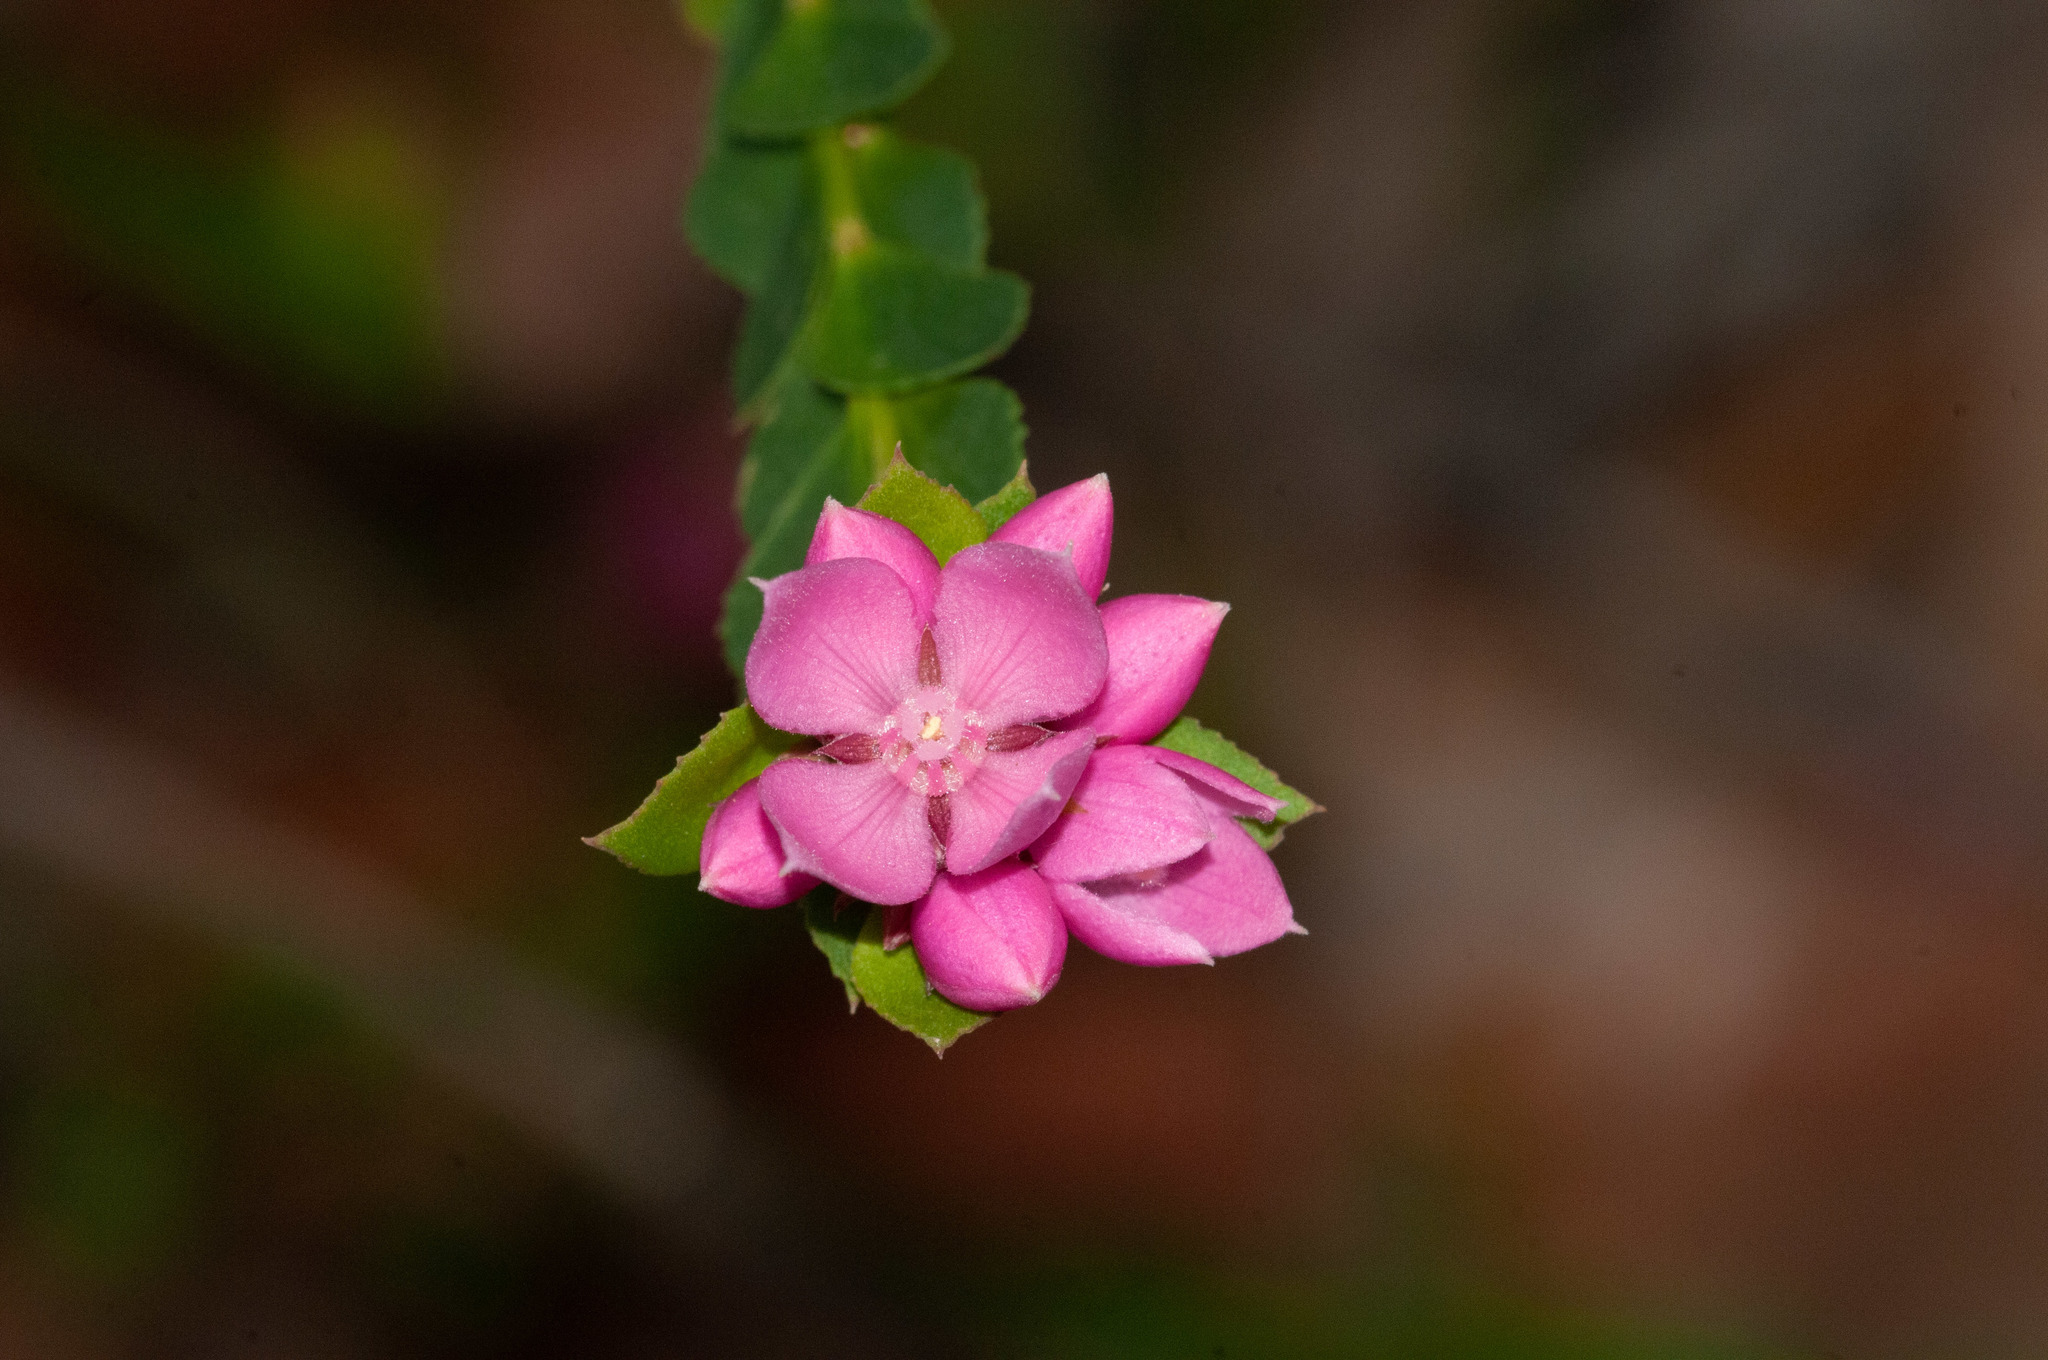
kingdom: Plantae
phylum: Tracheophyta
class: Magnoliopsida
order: Sapindales
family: Rutaceae
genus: Boronia
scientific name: Boronia serrulata
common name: Rose boronia
